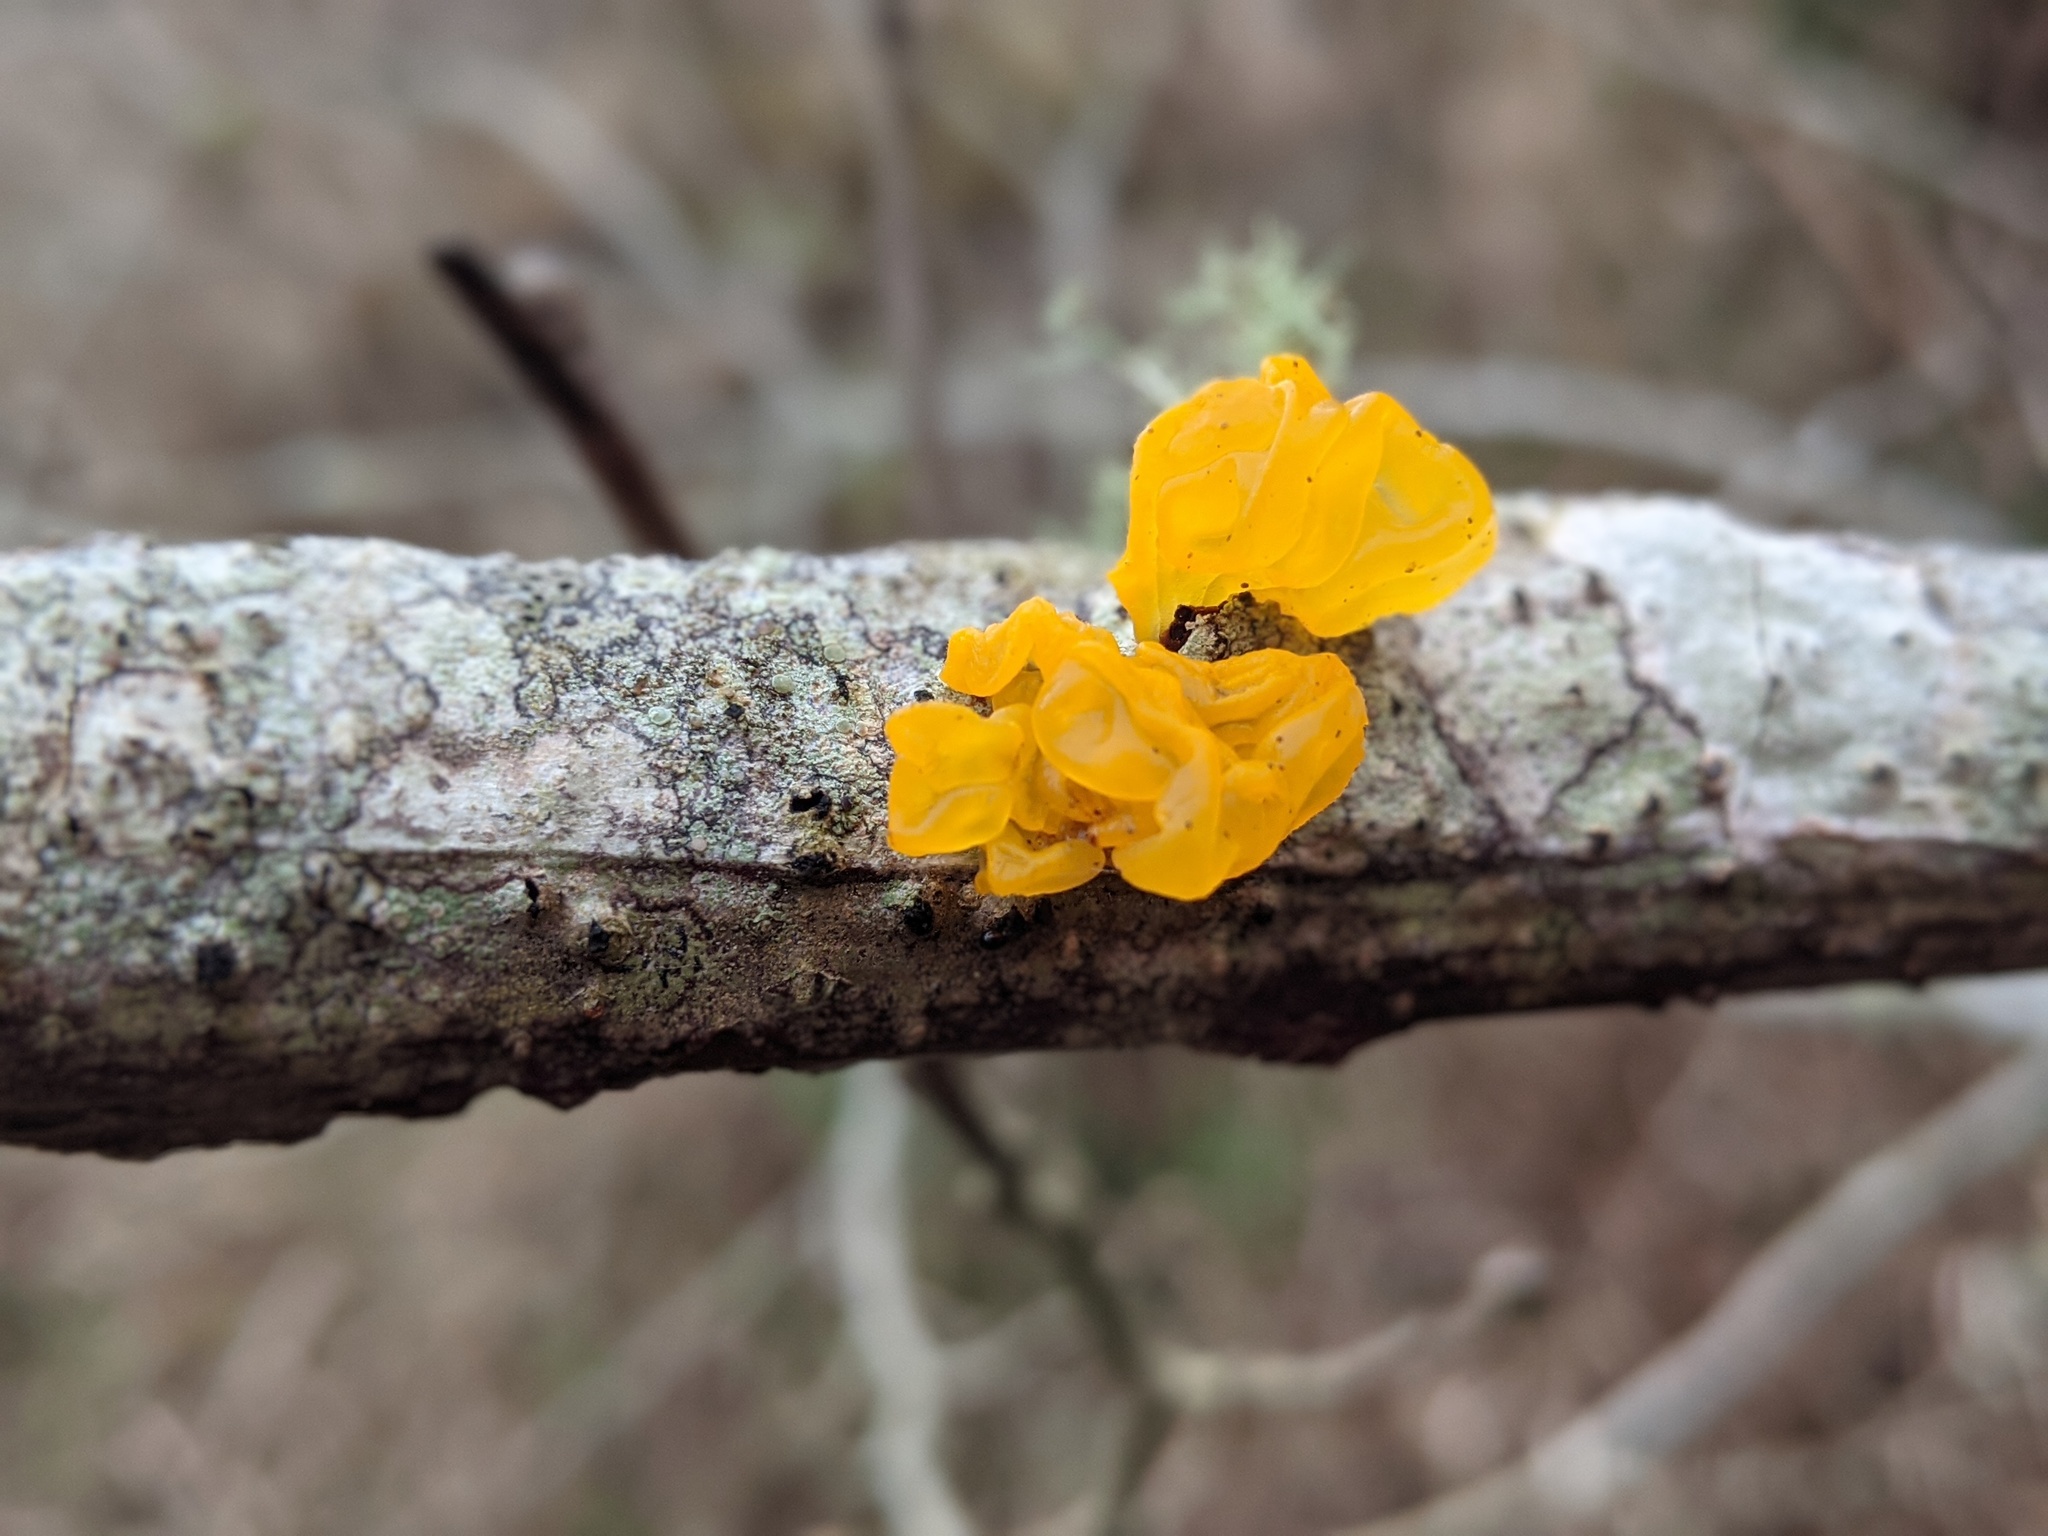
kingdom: Fungi
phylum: Basidiomycota
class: Tremellomycetes
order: Tremellales
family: Tremellaceae
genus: Tremella
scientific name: Tremella mesenterica
